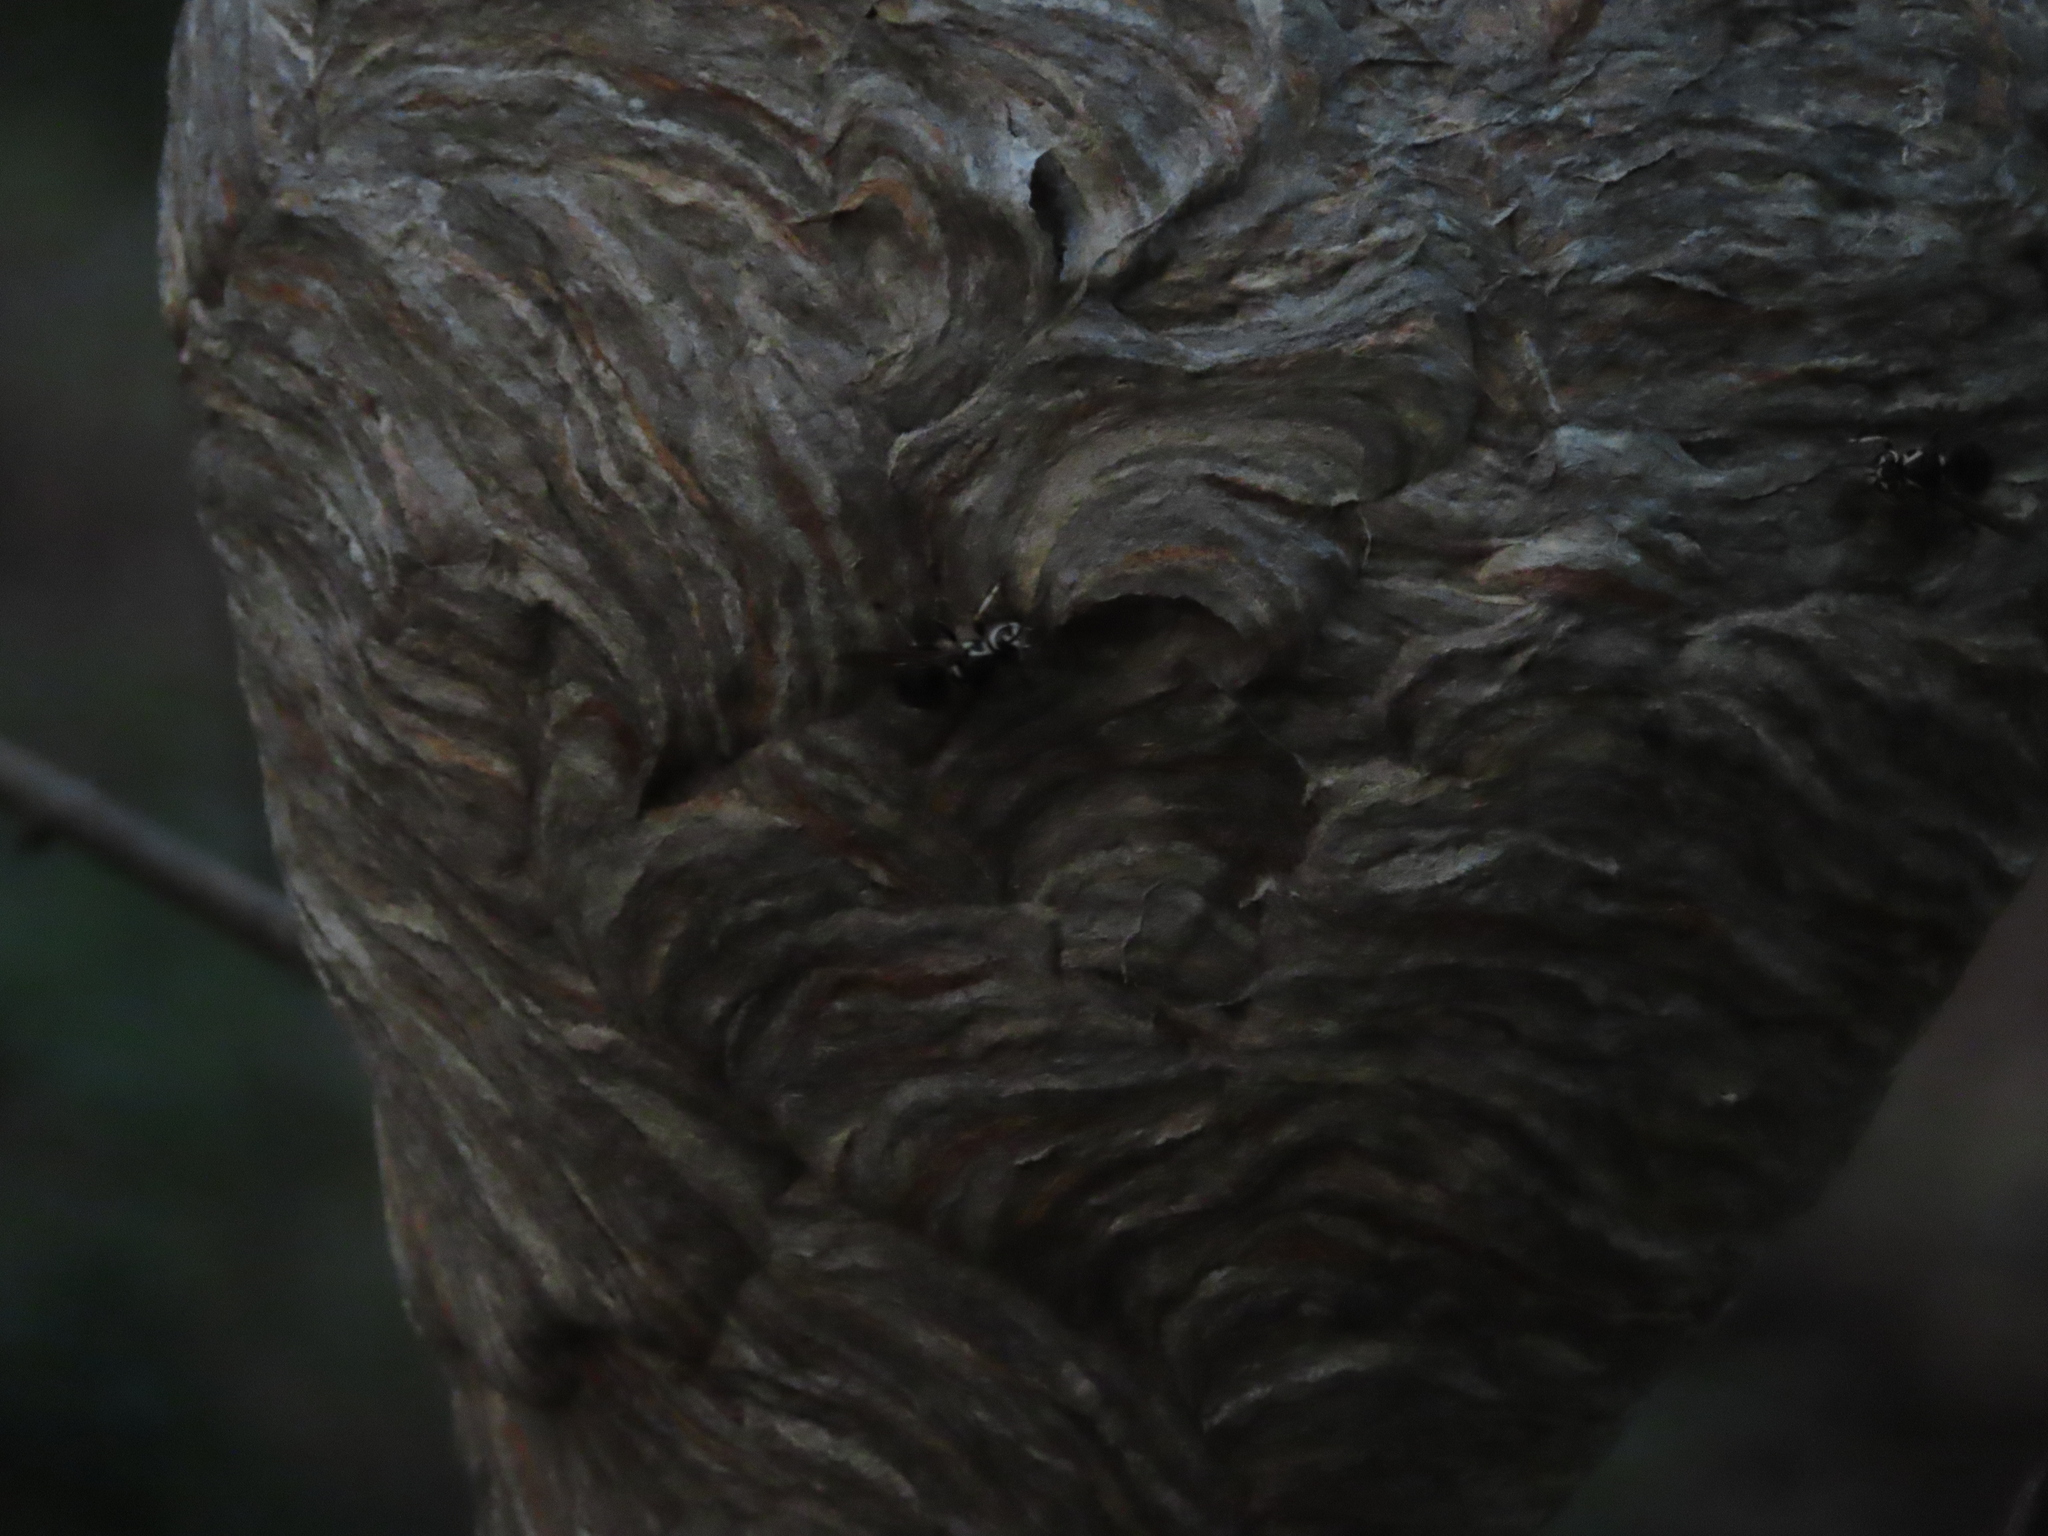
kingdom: Animalia
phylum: Arthropoda
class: Insecta
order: Hymenoptera
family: Vespidae
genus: Dolichovespula
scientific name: Dolichovespula maculata
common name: Bald-faced hornet
